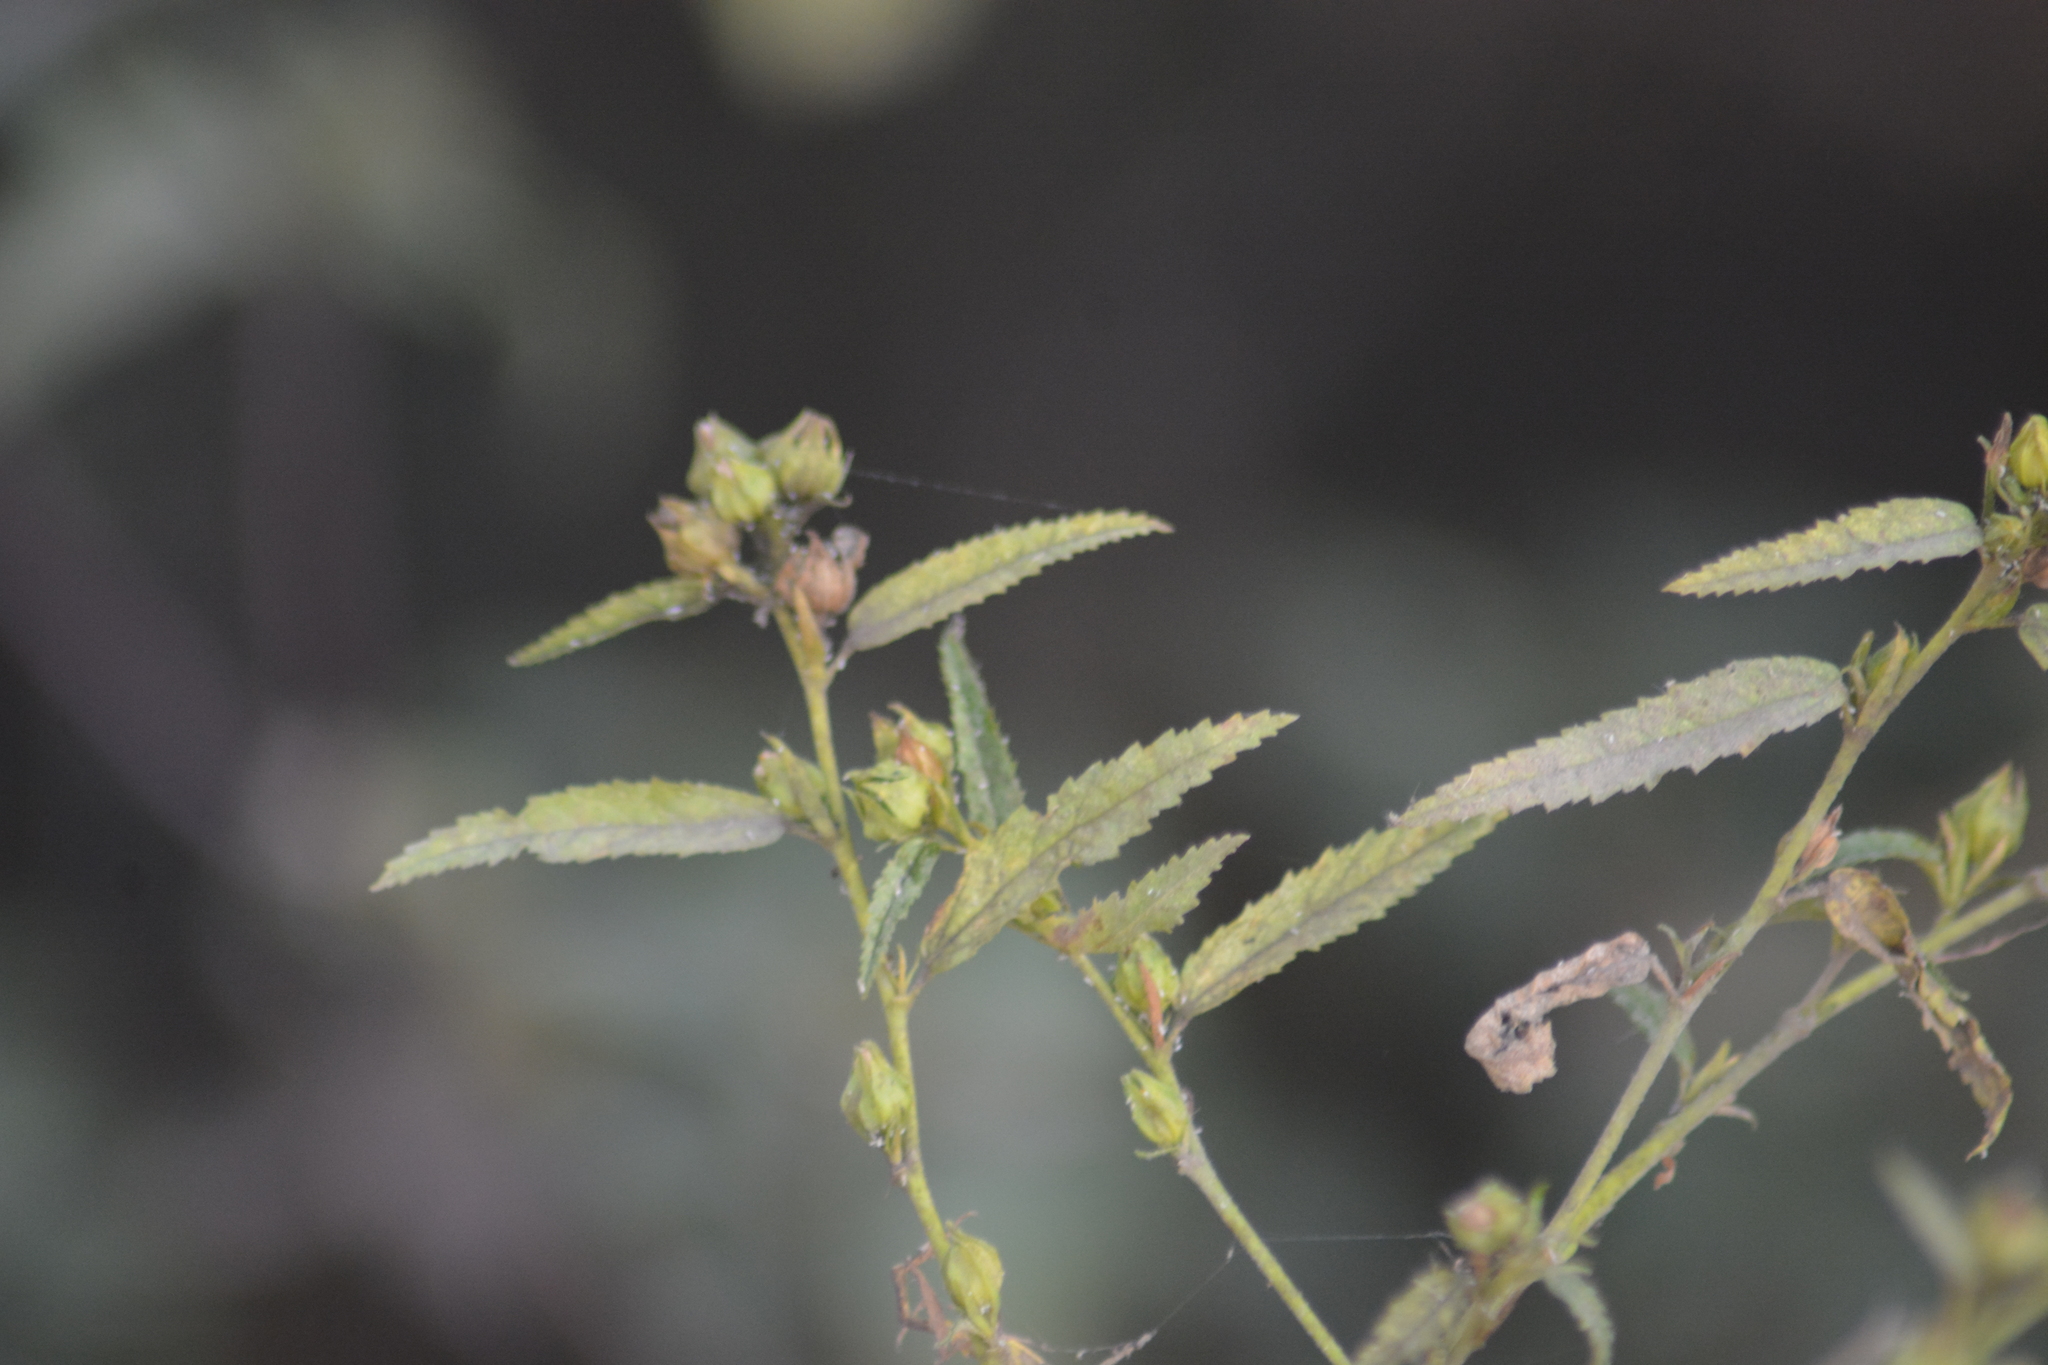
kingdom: Plantae
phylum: Tracheophyta
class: Magnoliopsida
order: Malvales
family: Malvaceae
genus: Sida
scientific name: Sida acuta
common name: Common wireweed
